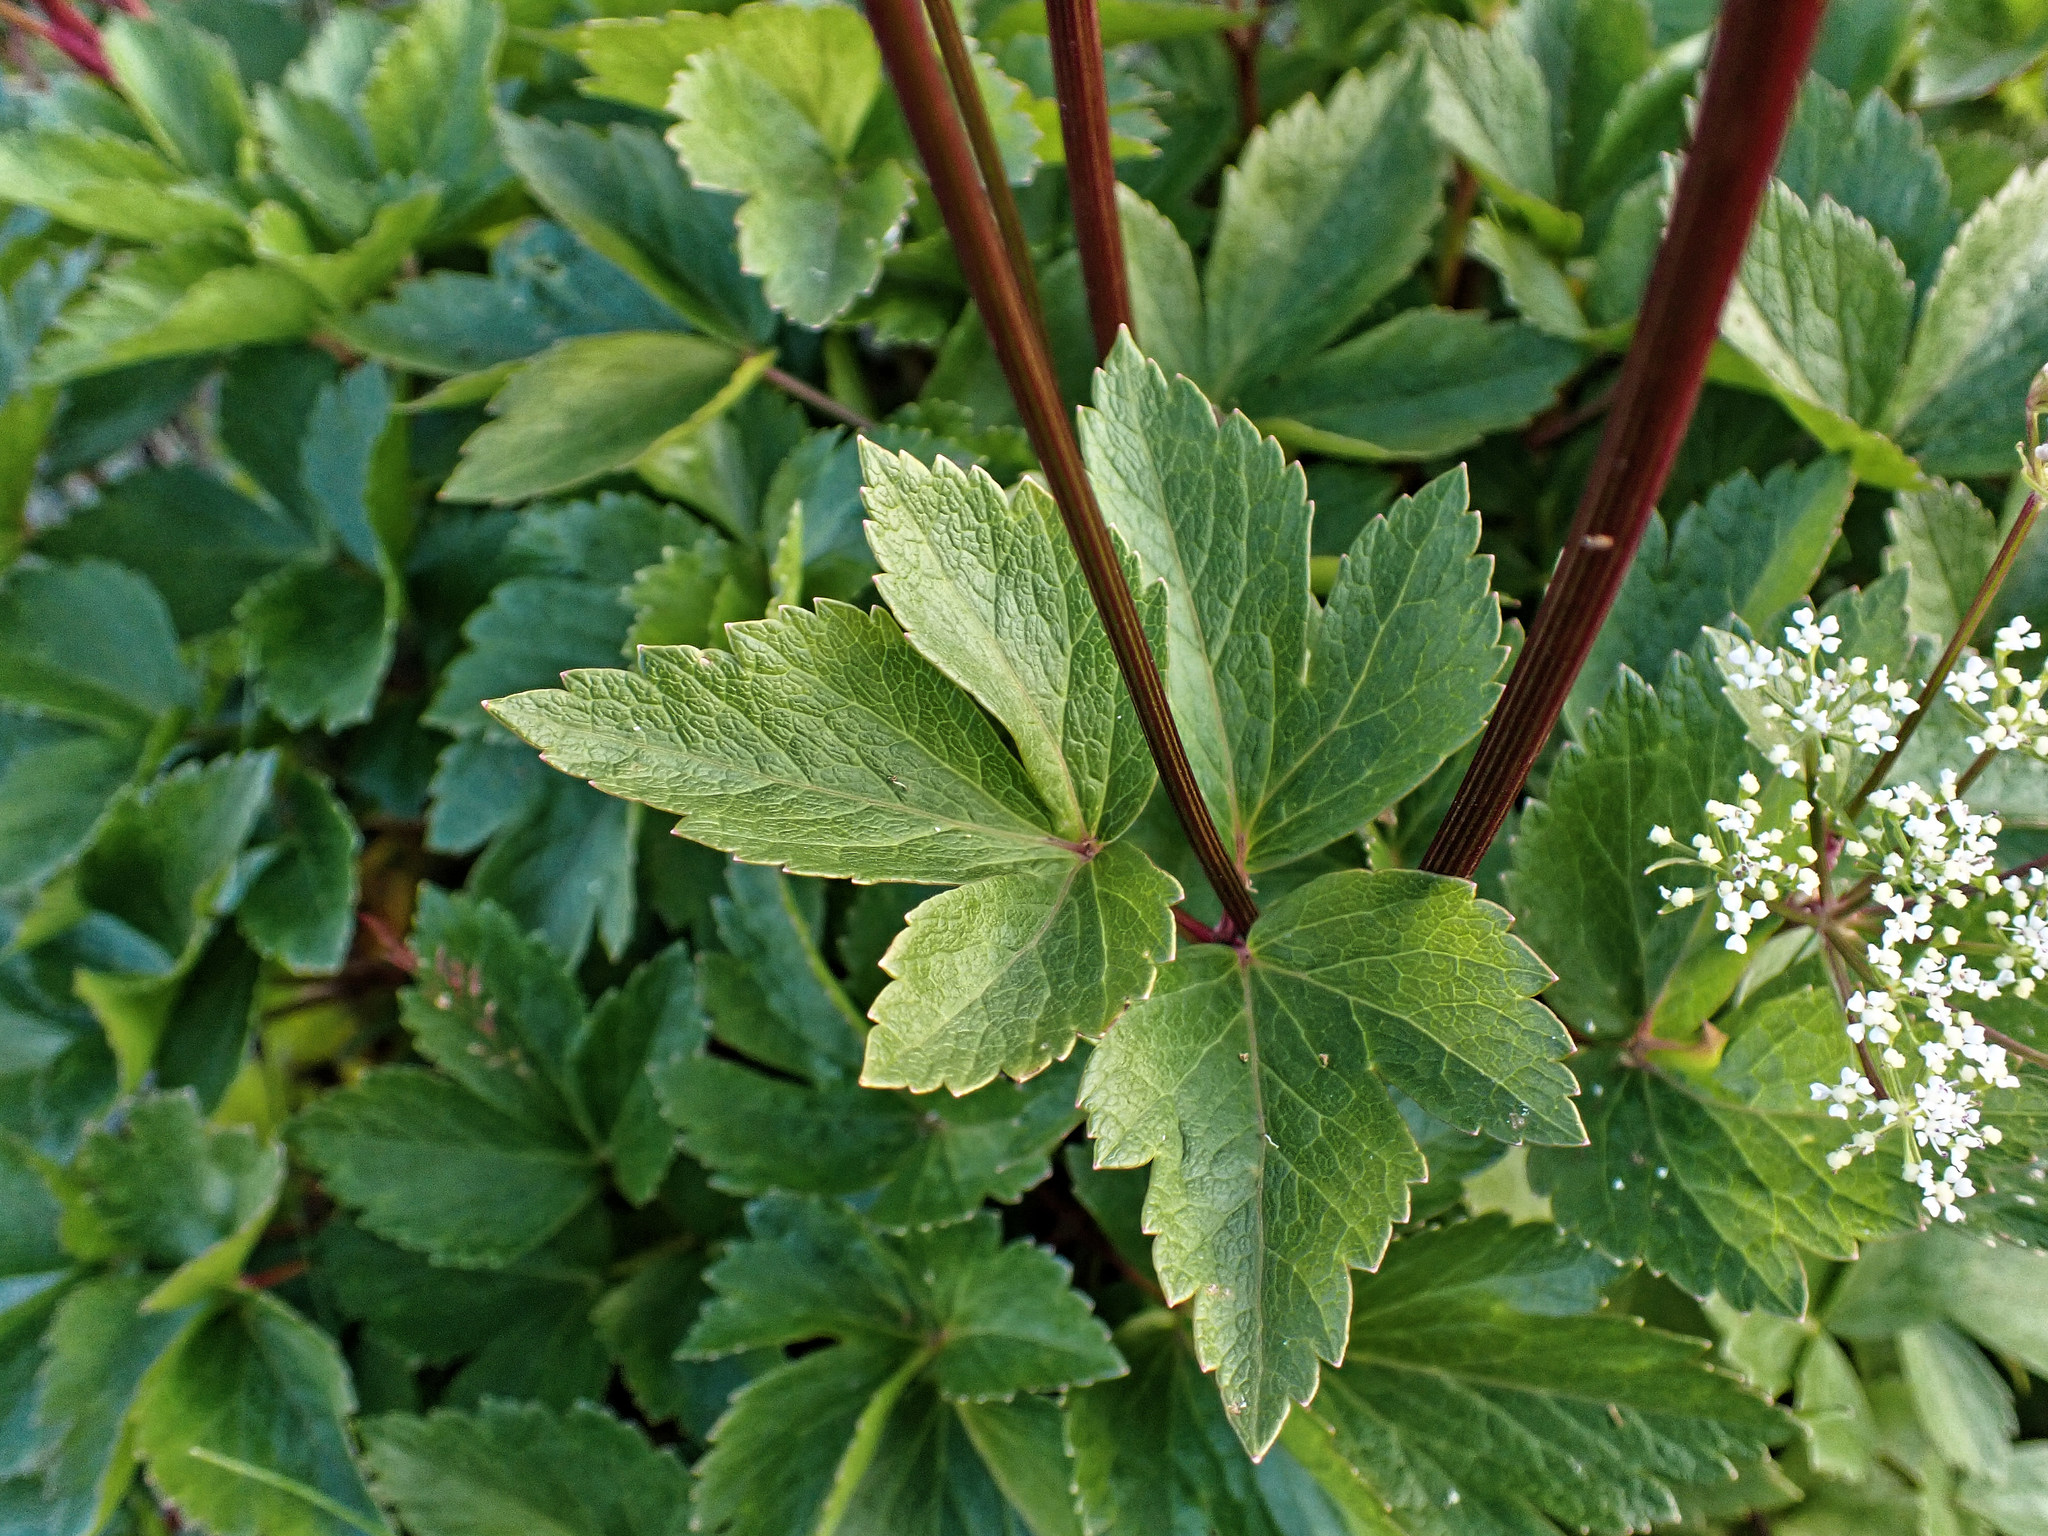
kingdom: Plantae
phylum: Tracheophyta
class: Magnoliopsida
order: Apiales
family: Apiaceae
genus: Ligusticum
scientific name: Ligusticum scothicum
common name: Beach lovage
